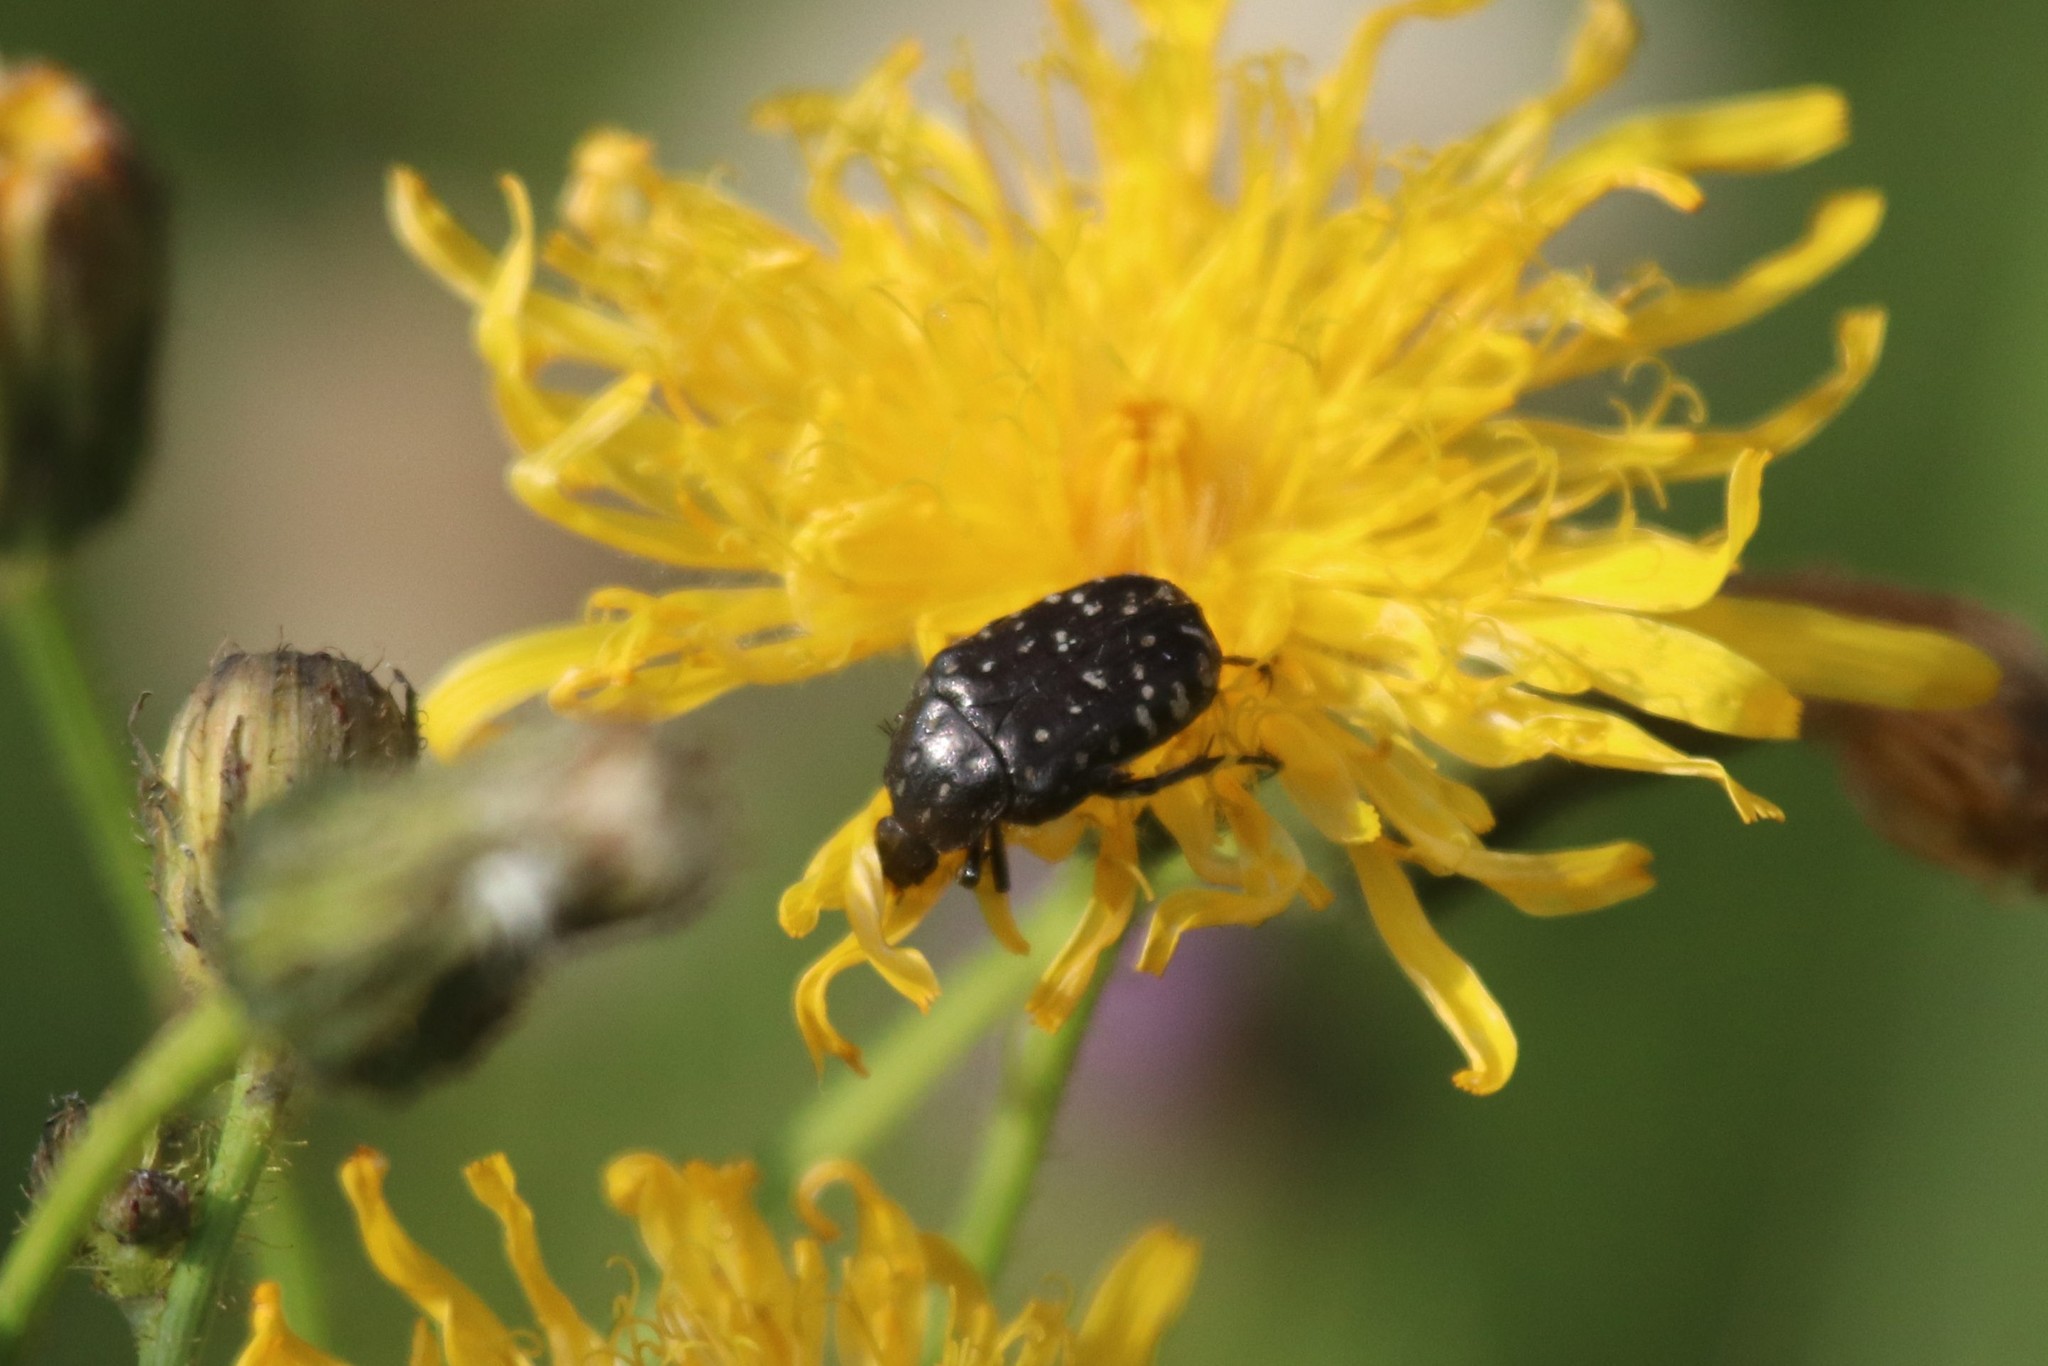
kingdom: Animalia
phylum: Arthropoda
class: Insecta
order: Coleoptera
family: Scarabaeidae
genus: Oxythyrea
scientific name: Oxythyrea funesta
